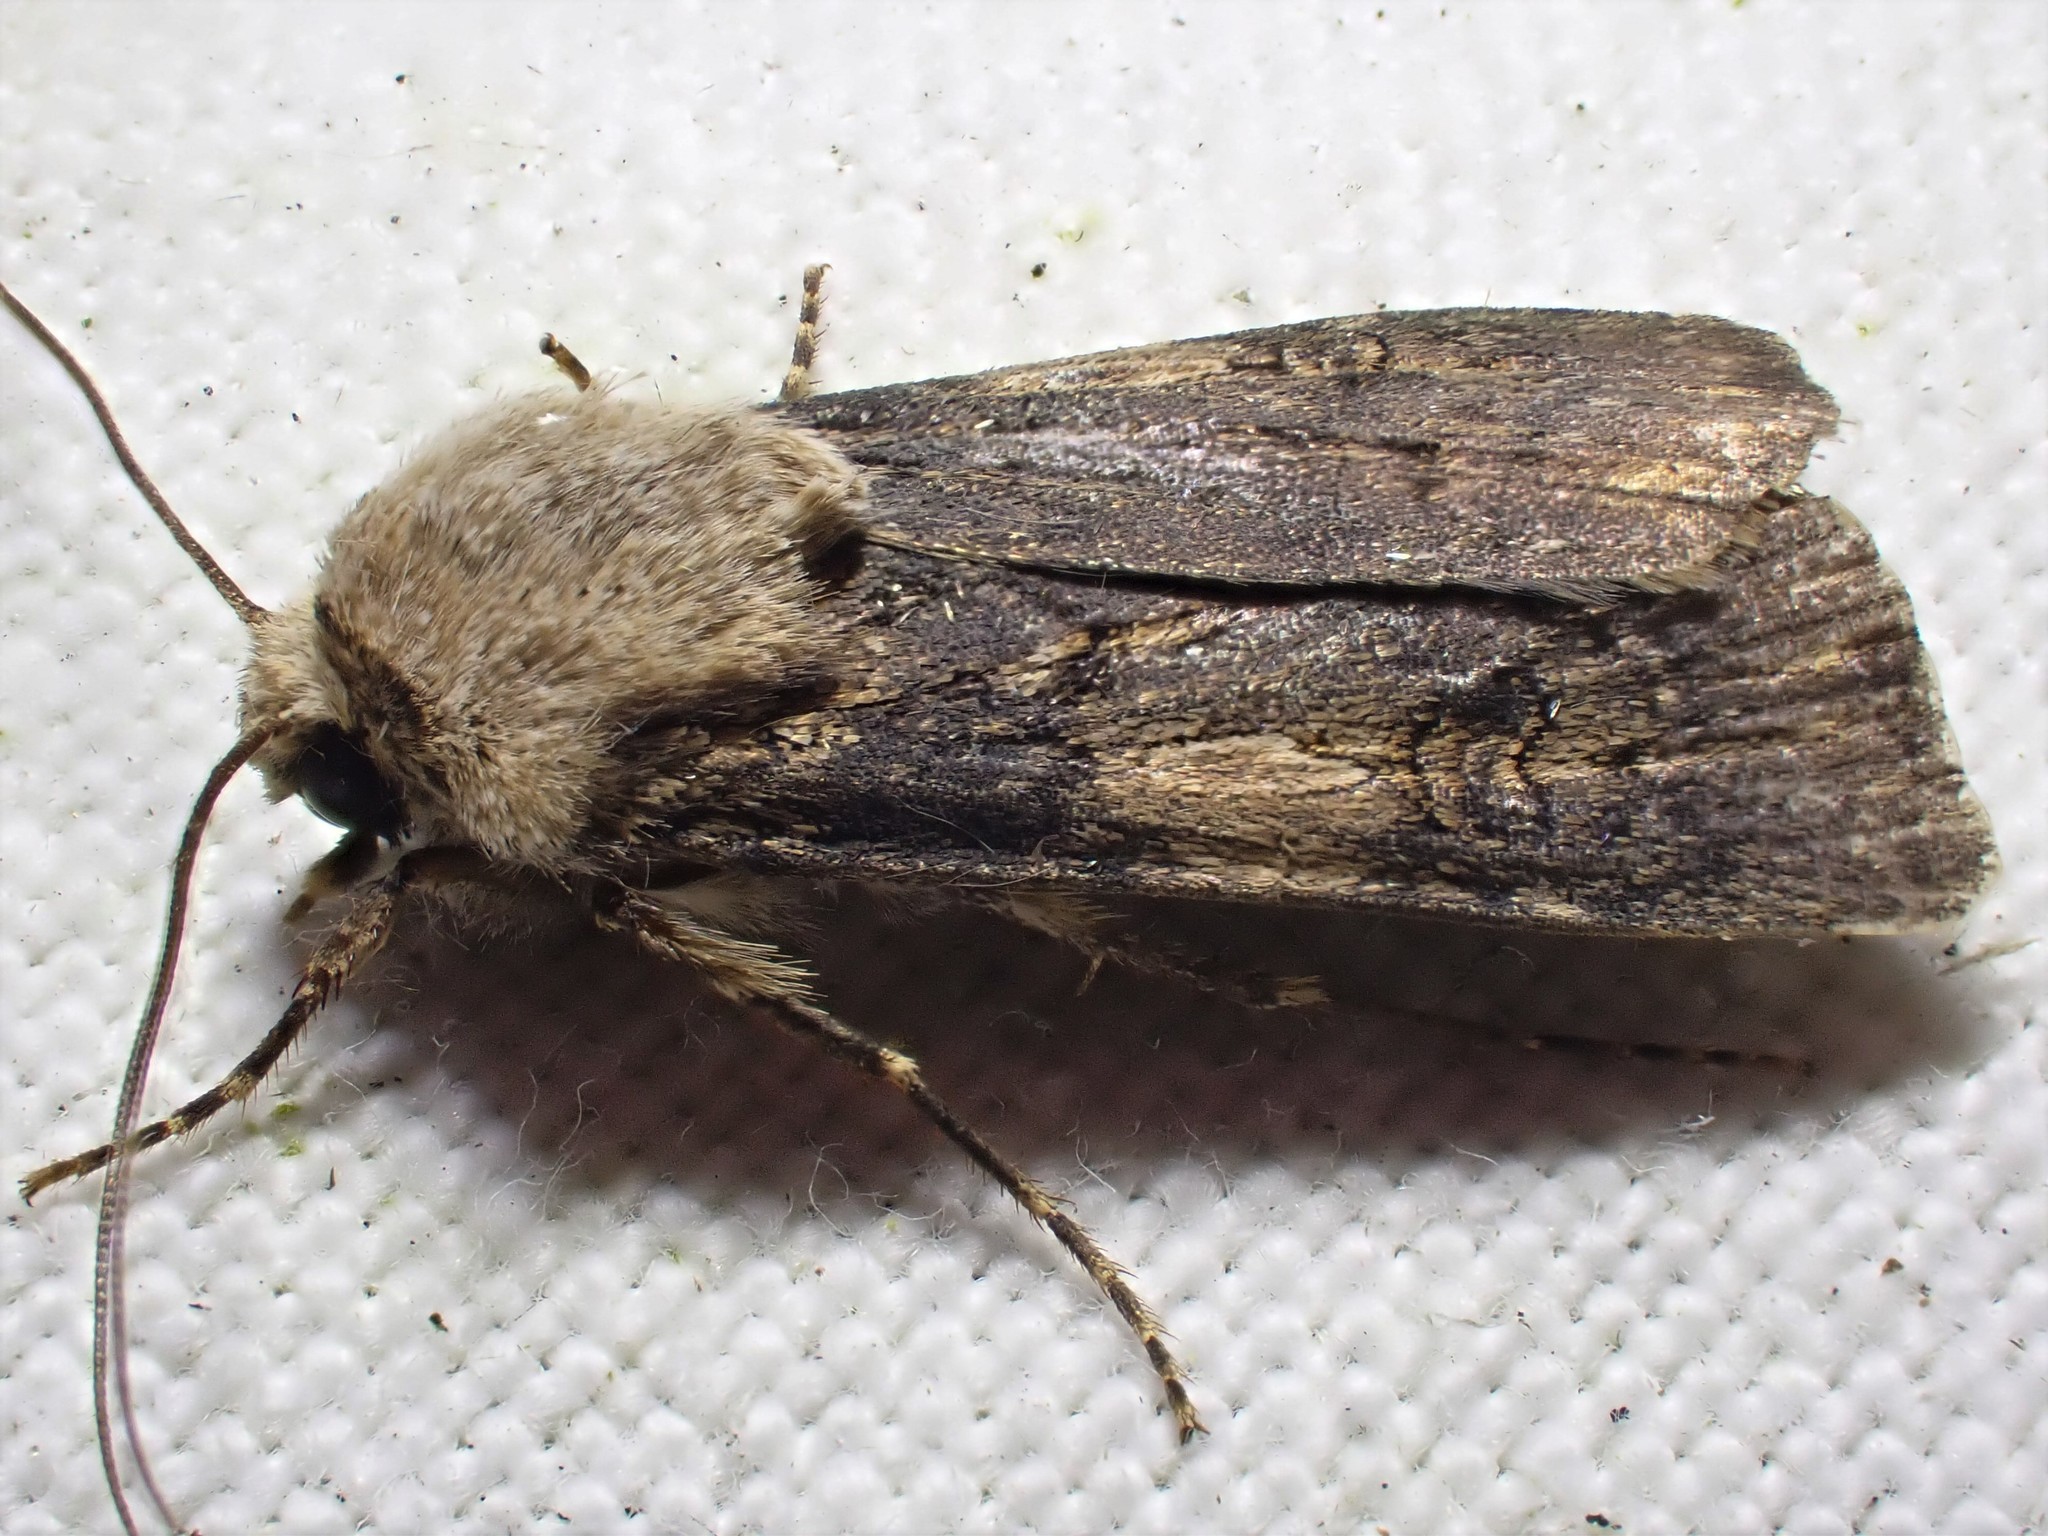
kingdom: Animalia
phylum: Arthropoda
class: Insecta
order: Lepidoptera
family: Noctuidae
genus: Agrotis
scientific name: Agrotis puta
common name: Shuttle-shaped dart
